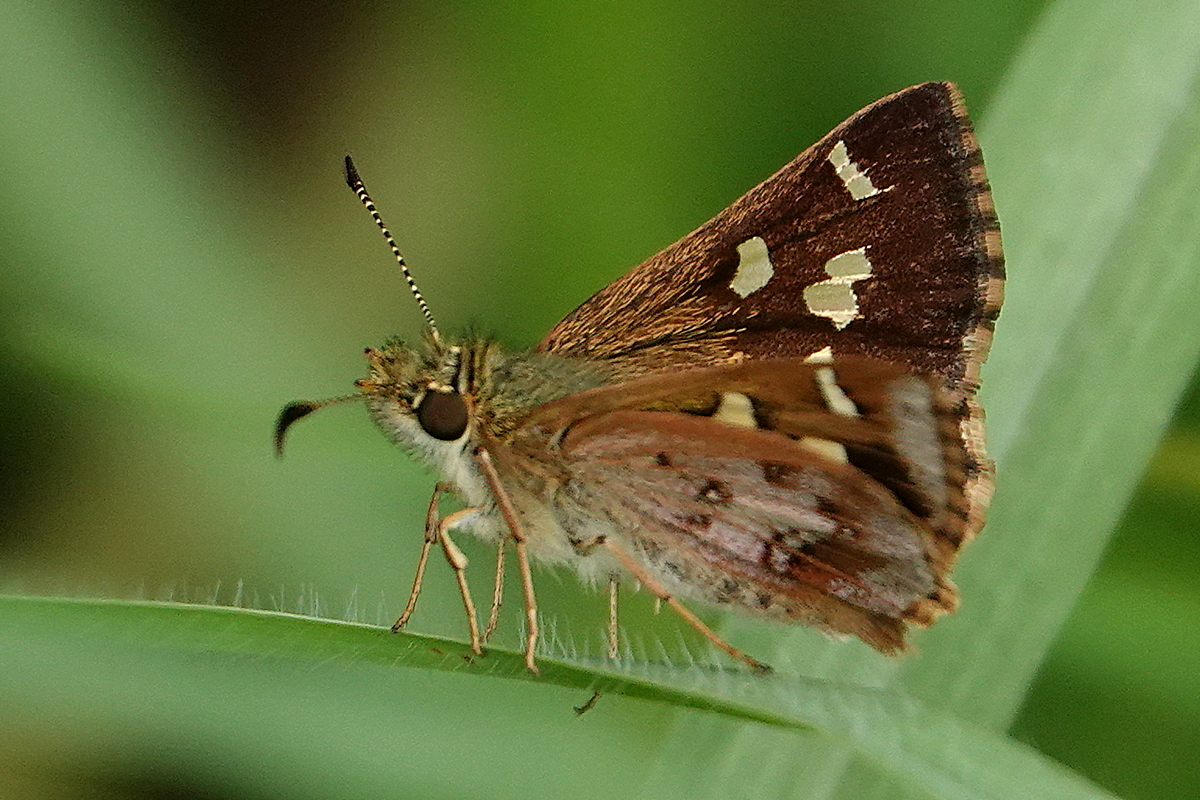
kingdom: Animalia
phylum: Arthropoda
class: Insecta
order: Lepidoptera
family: Hesperiidae
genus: Dispar
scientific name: Dispar compacta
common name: Barred skipper
